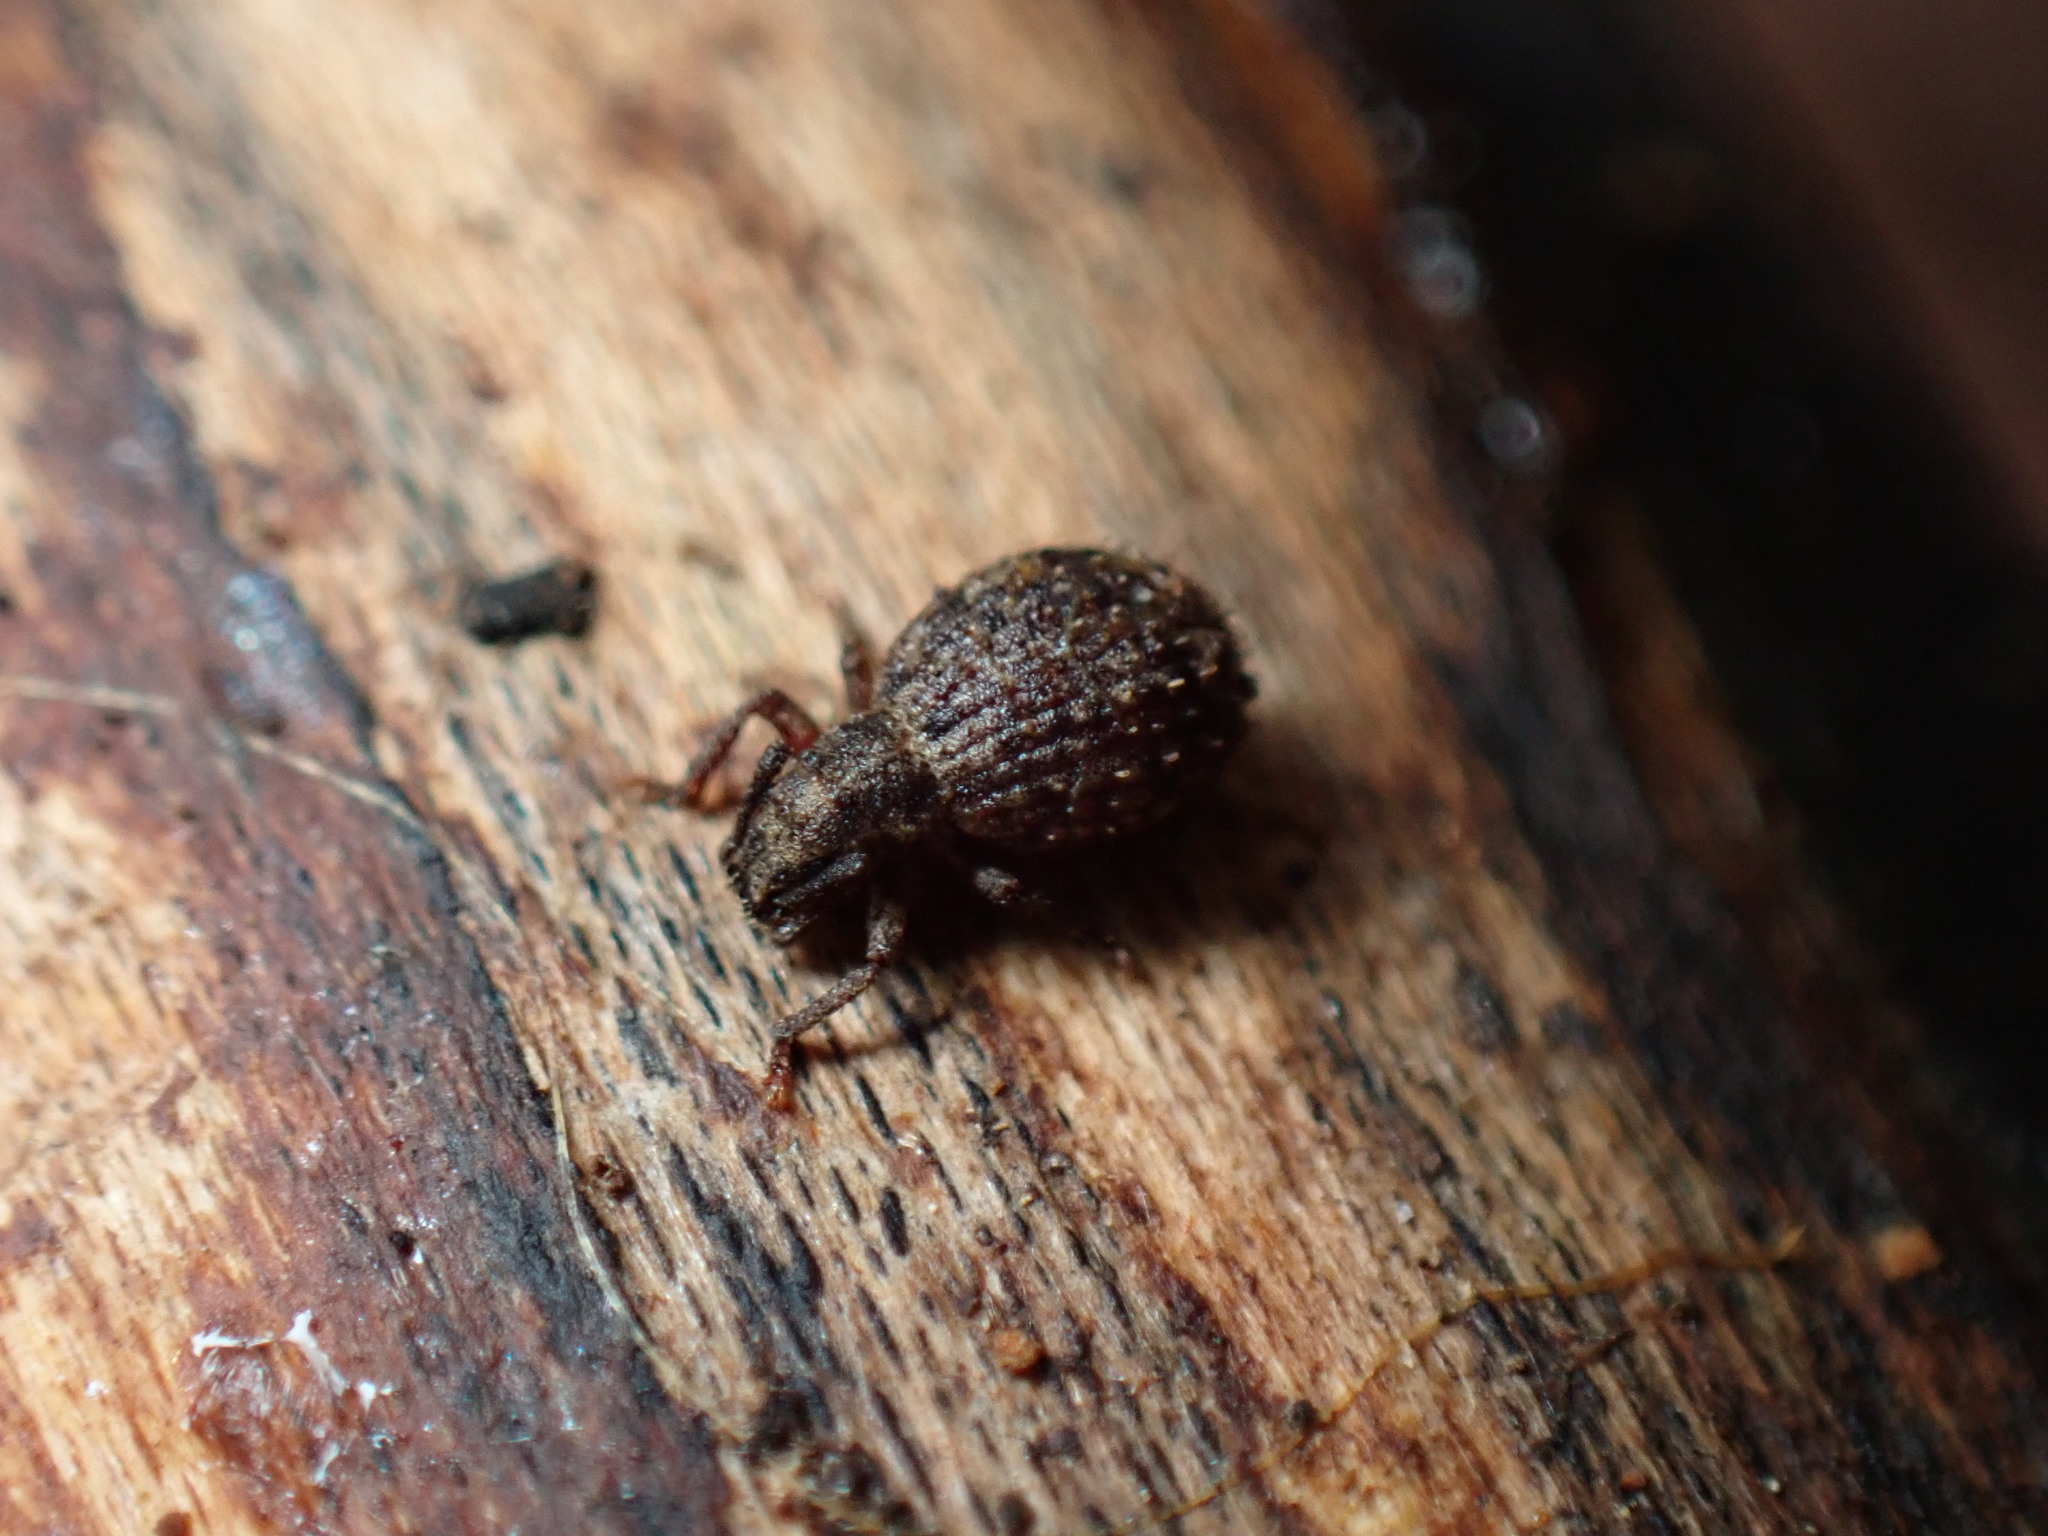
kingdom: Animalia
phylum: Arthropoda
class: Insecta
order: Coleoptera
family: Curculionidae
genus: Myosides
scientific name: Myosides seriehispidus
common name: Broadnosed weevil
